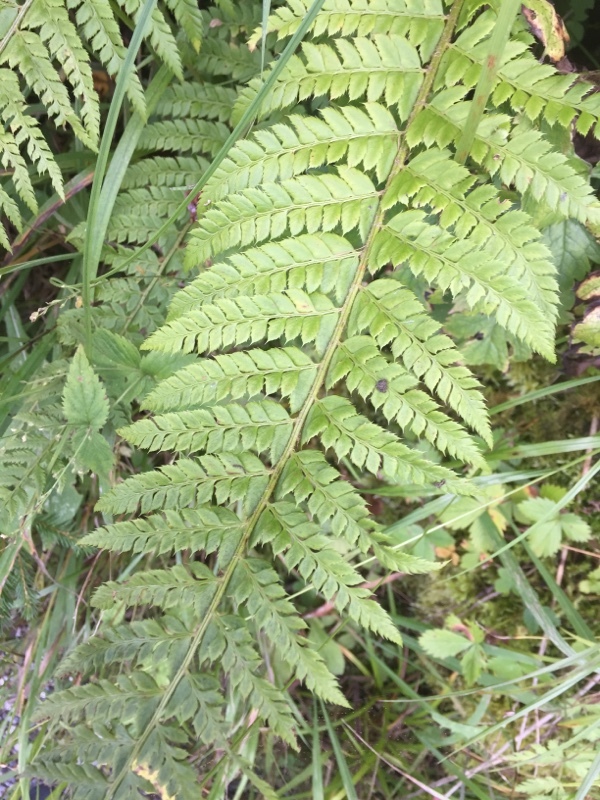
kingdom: Plantae
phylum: Tracheophyta
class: Polypodiopsida
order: Polypodiales
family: Dryopteridaceae
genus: Polystichum
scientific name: Polystichum aculeatum
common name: Hard shield-fern
